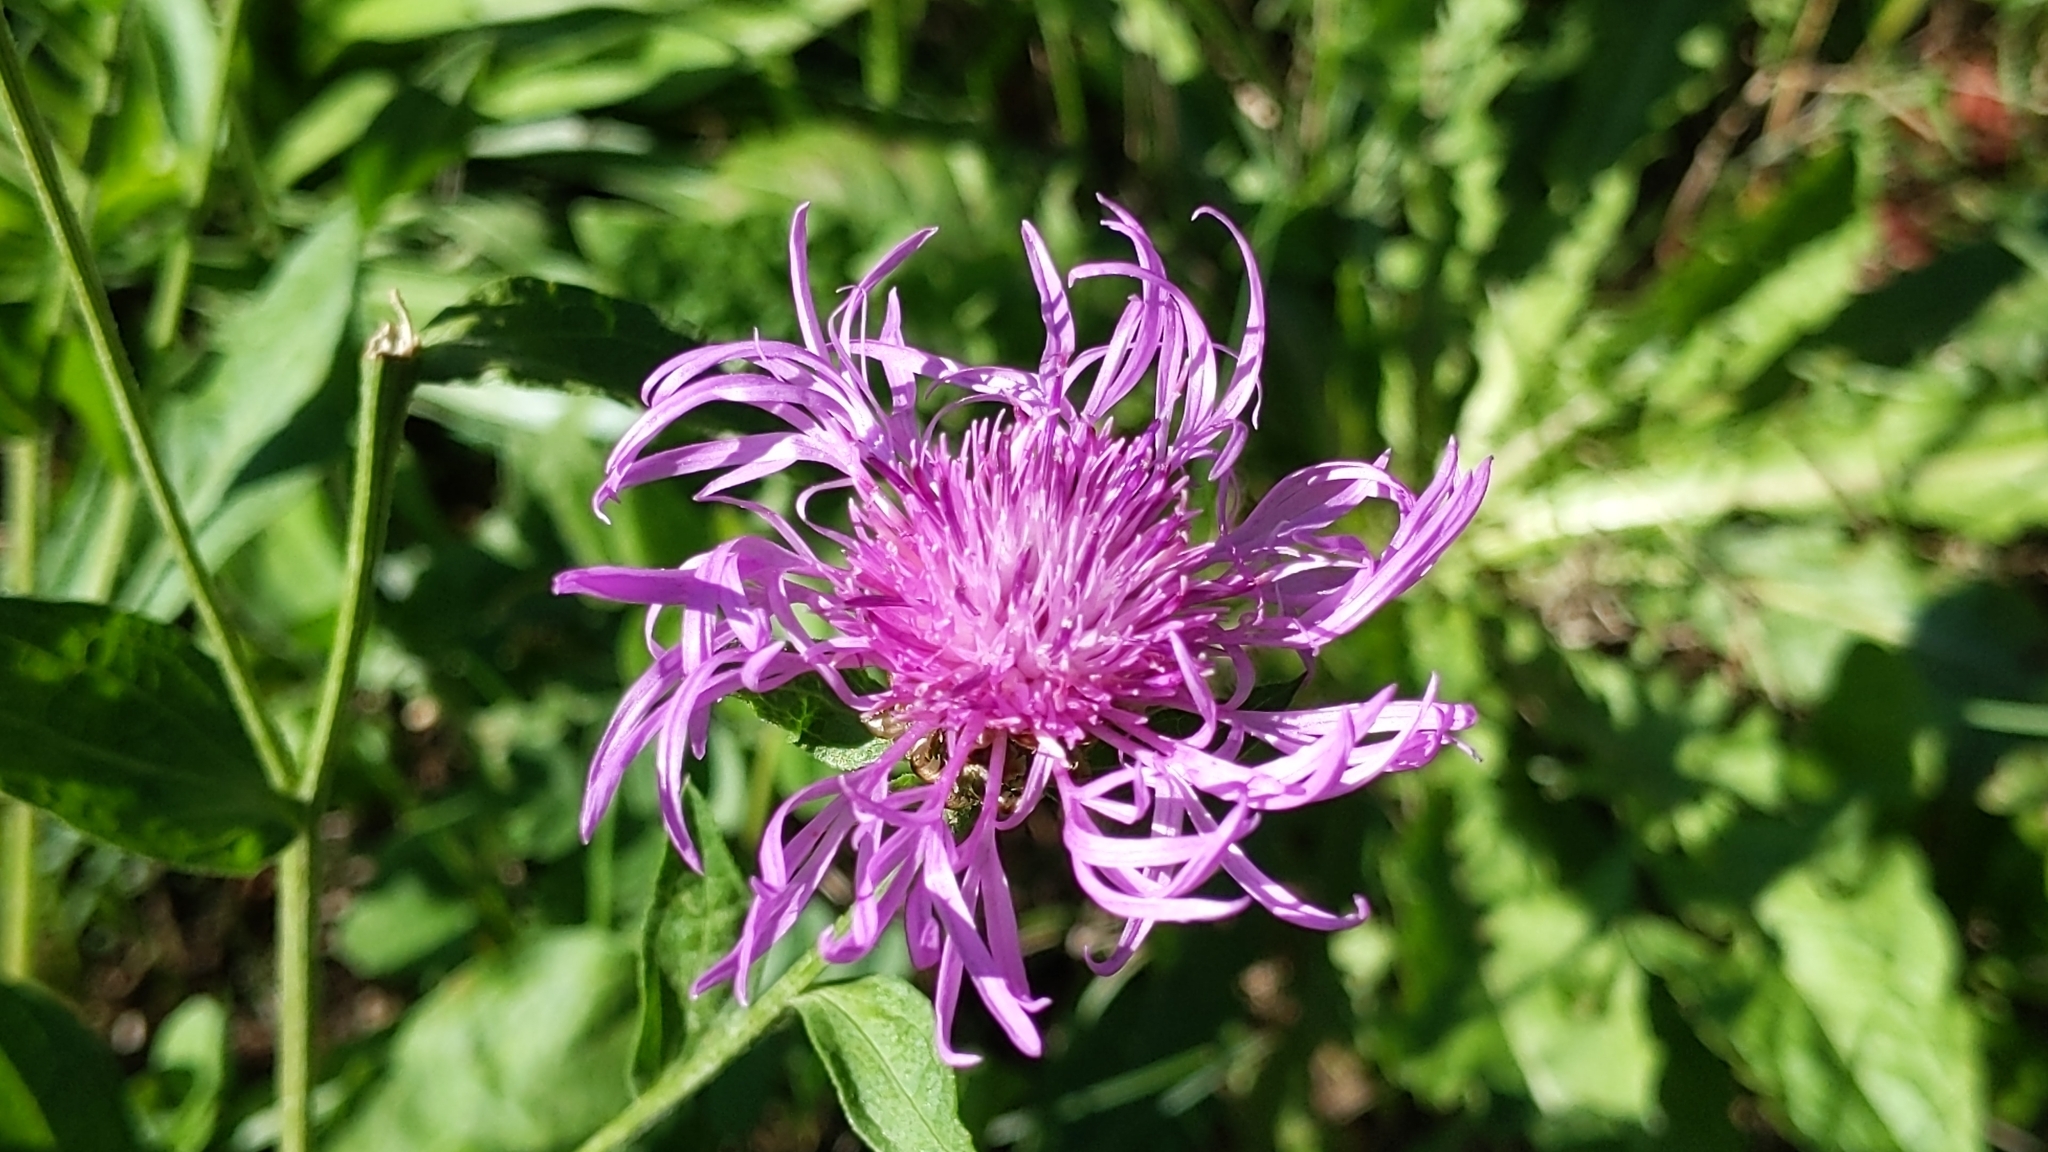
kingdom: Plantae
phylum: Tracheophyta
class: Magnoliopsida
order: Asterales
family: Asteraceae
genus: Centaurea
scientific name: Centaurea jacea
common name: Brown knapweed
